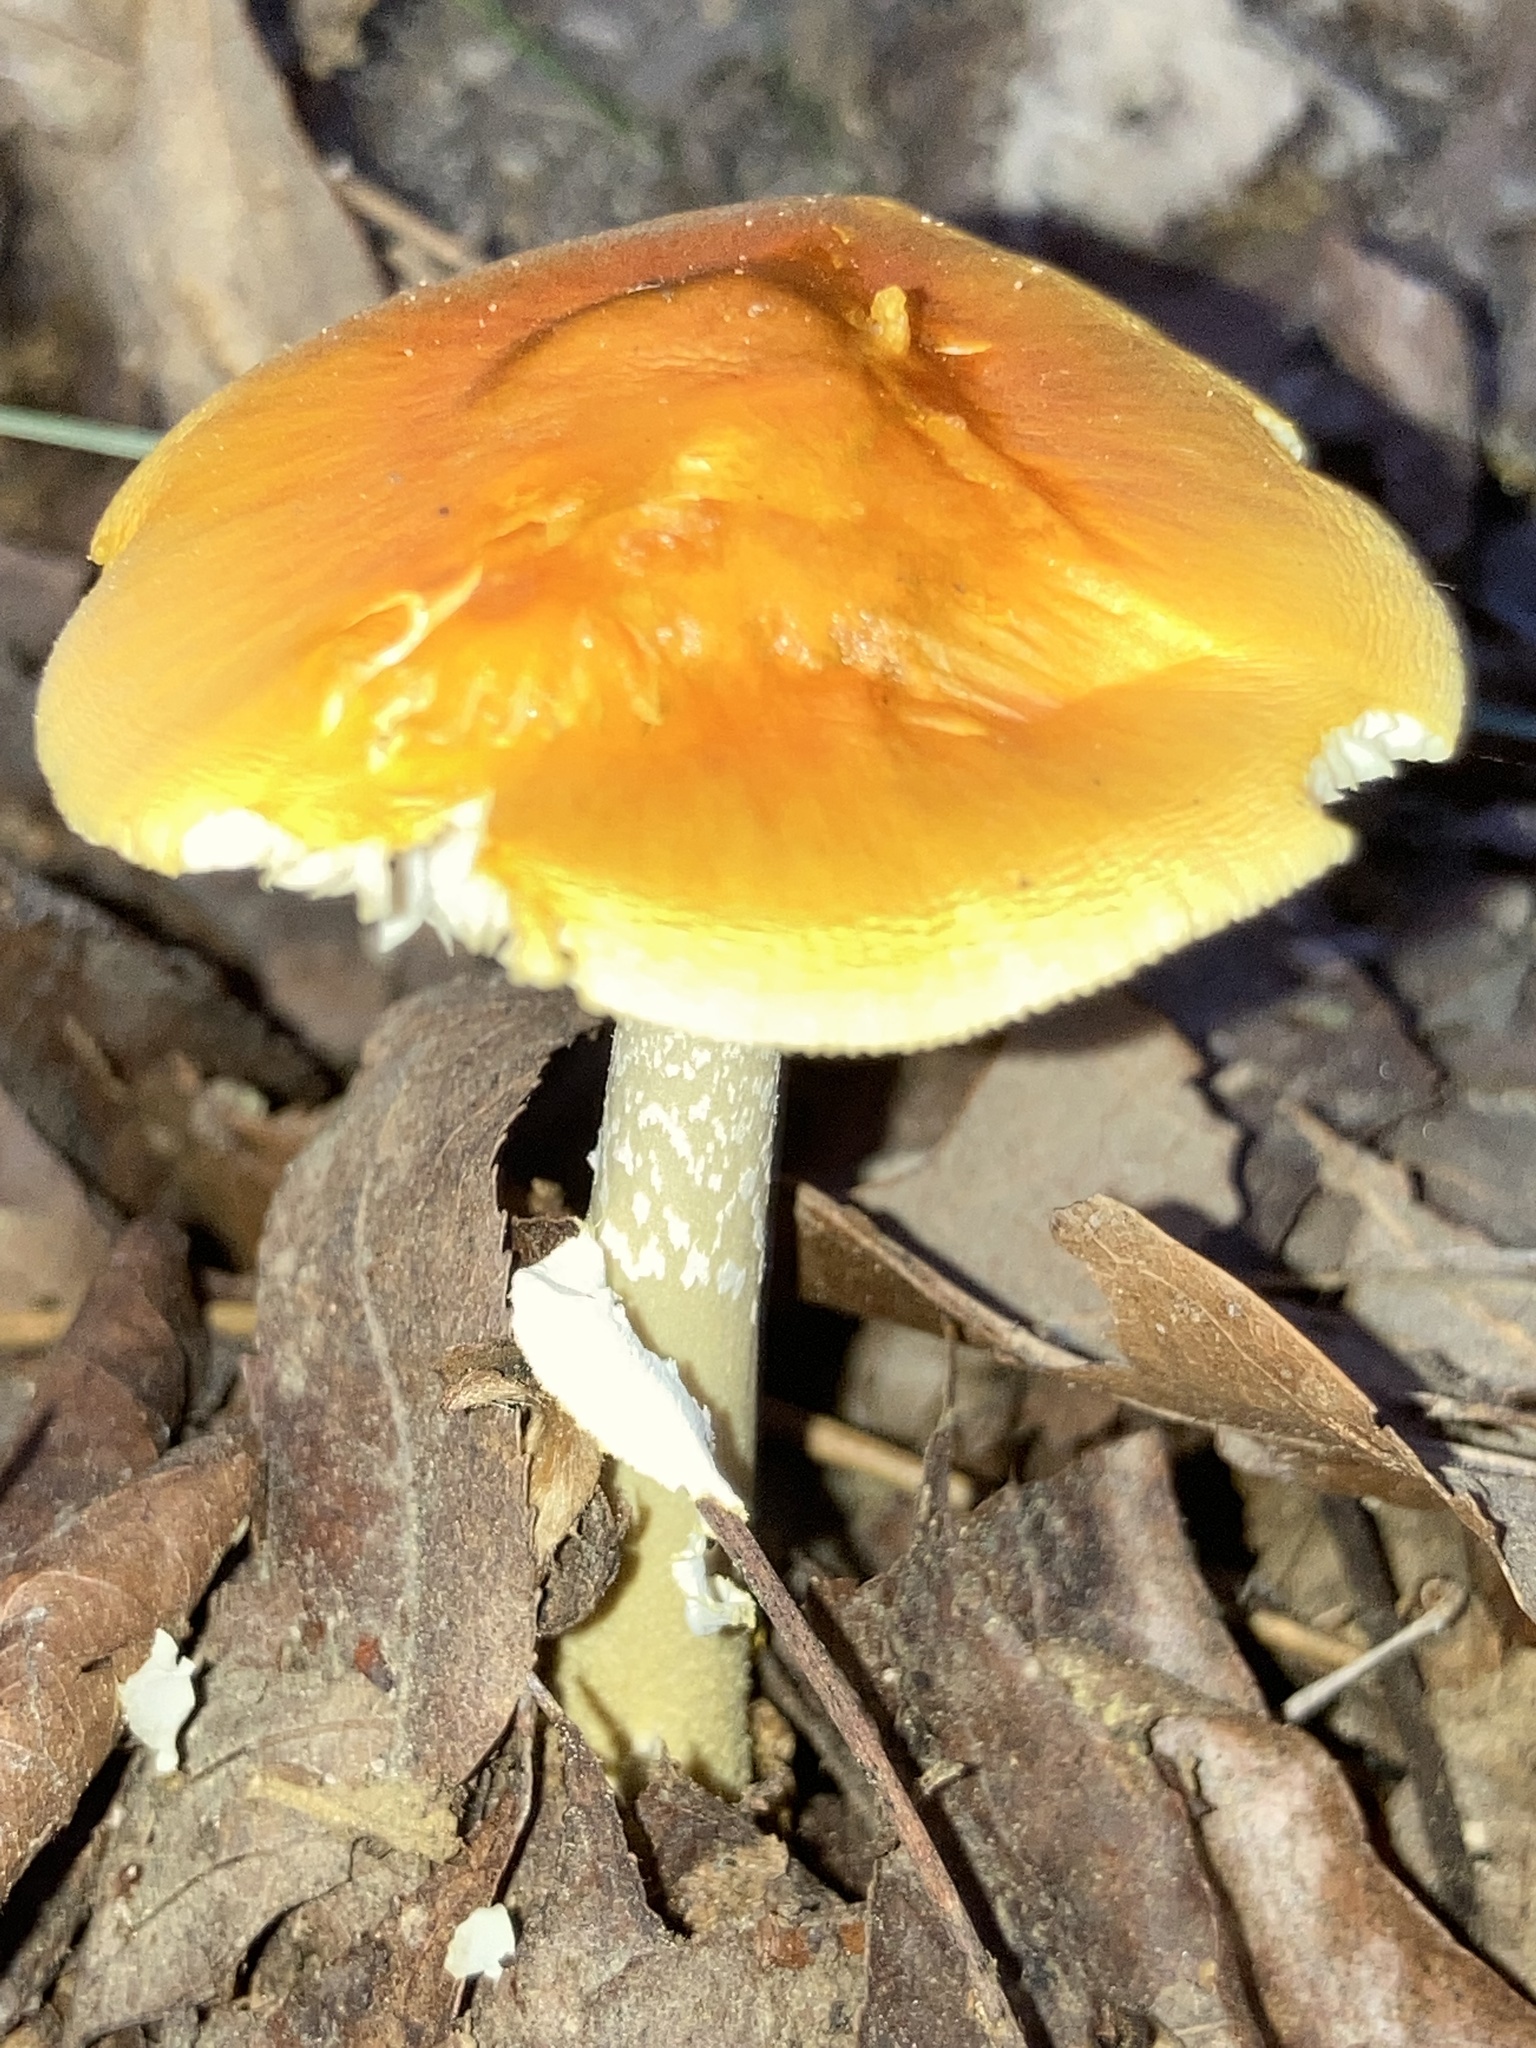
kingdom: Fungi
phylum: Basidiomycota
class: Agaricomycetes
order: Agaricales
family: Amanitaceae
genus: Amanita
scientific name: Amanita flavoconia
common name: Yellow patches
